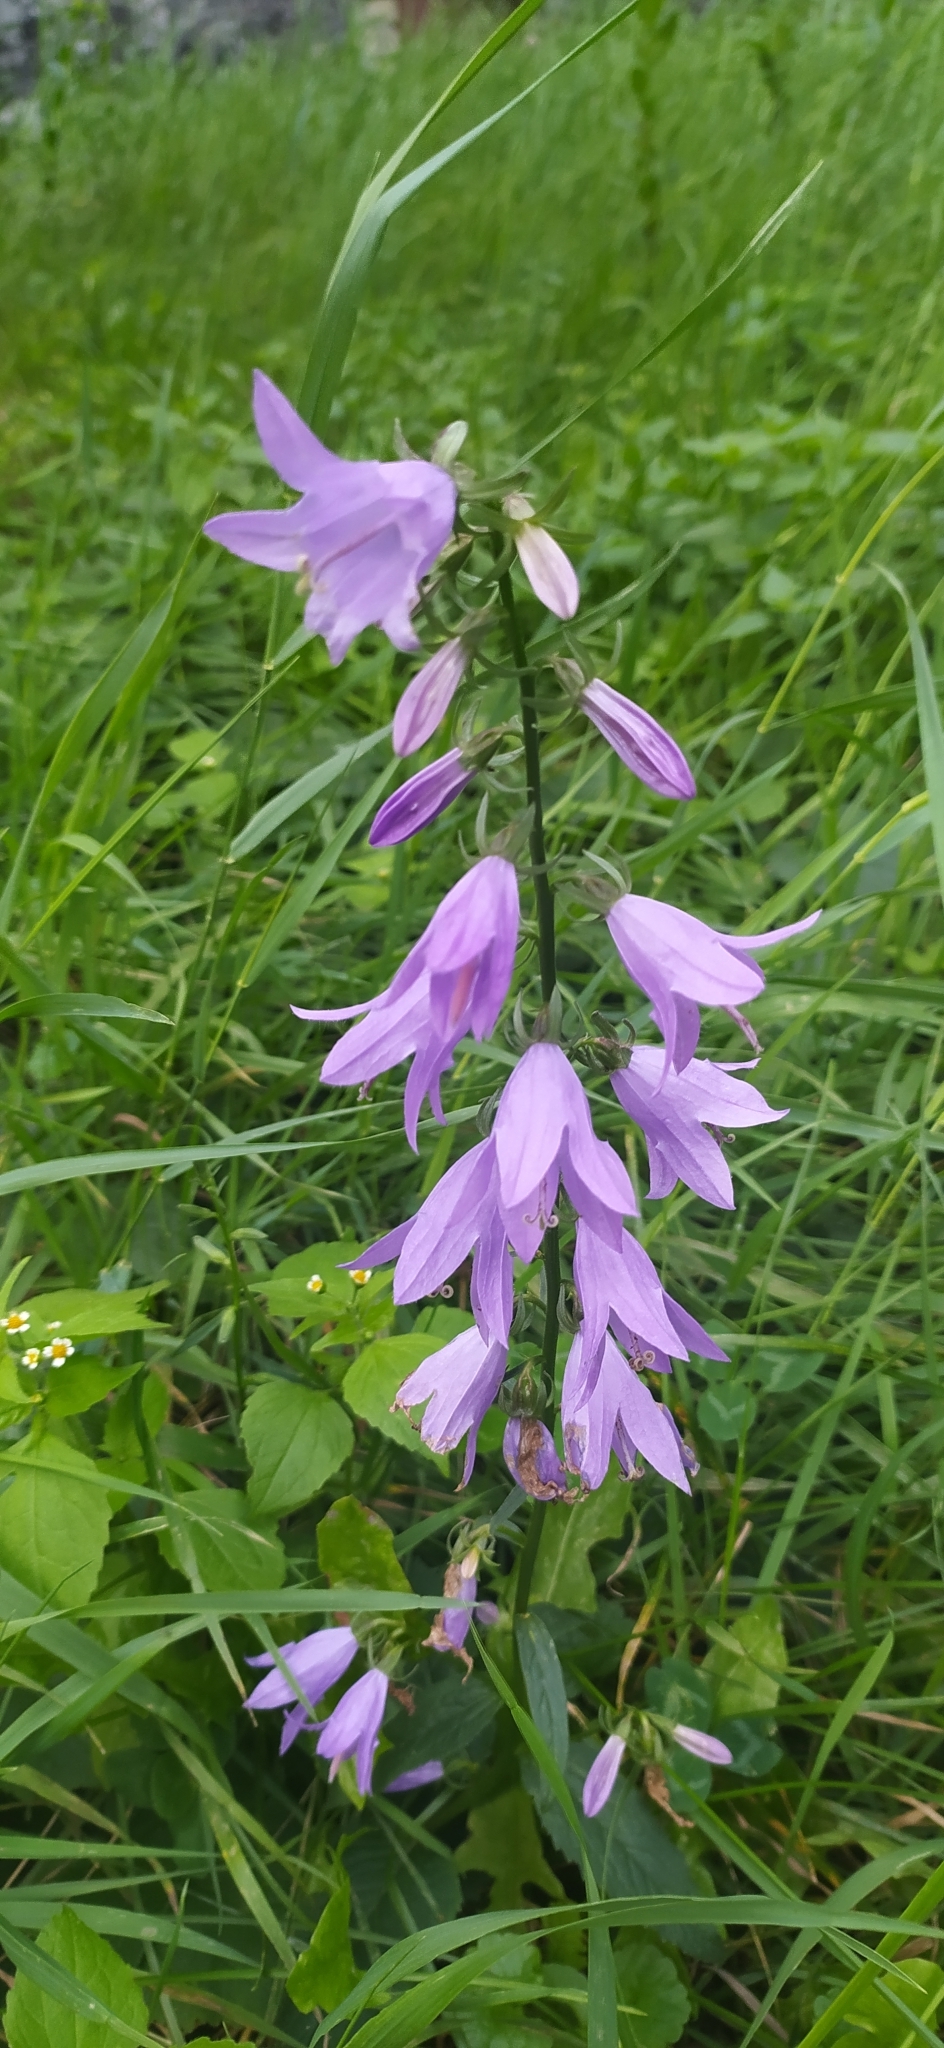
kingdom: Plantae
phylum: Tracheophyta
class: Magnoliopsida
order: Asterales
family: Campanulaceae
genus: Campanula
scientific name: Campanula rapunculoides
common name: Creeping bellflower
